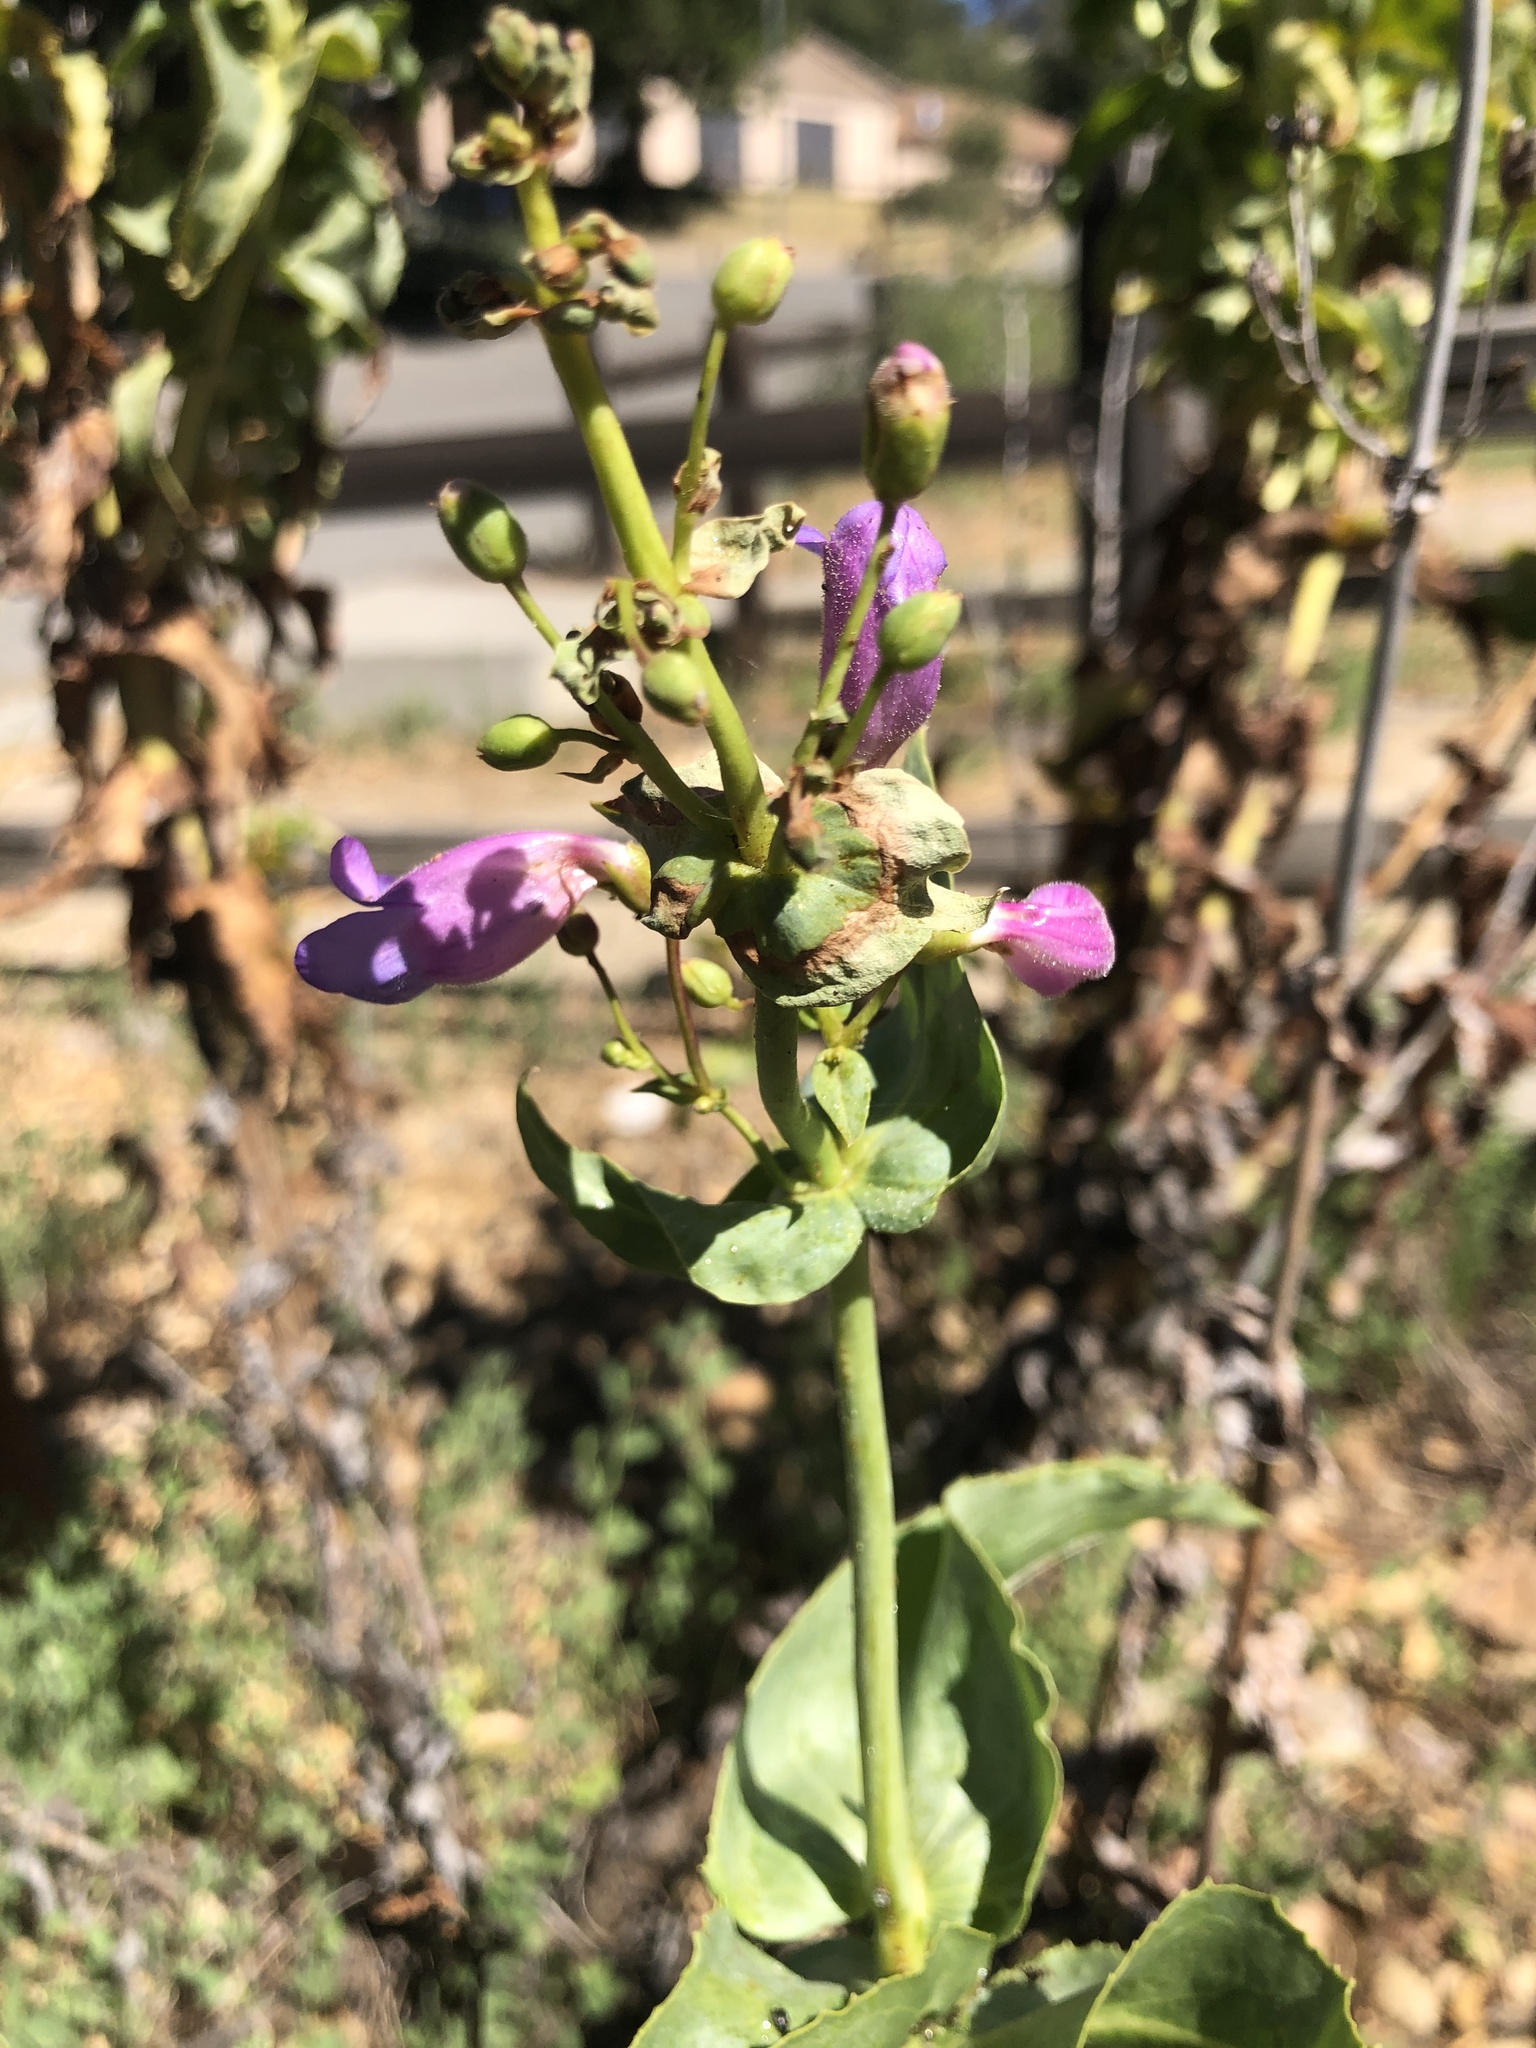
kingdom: Plantae
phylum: Tracheophyta
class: Magnoliopsida
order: Lamiales
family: Plantaginaceae
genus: Penstemon
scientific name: Penstemon spectabilis
